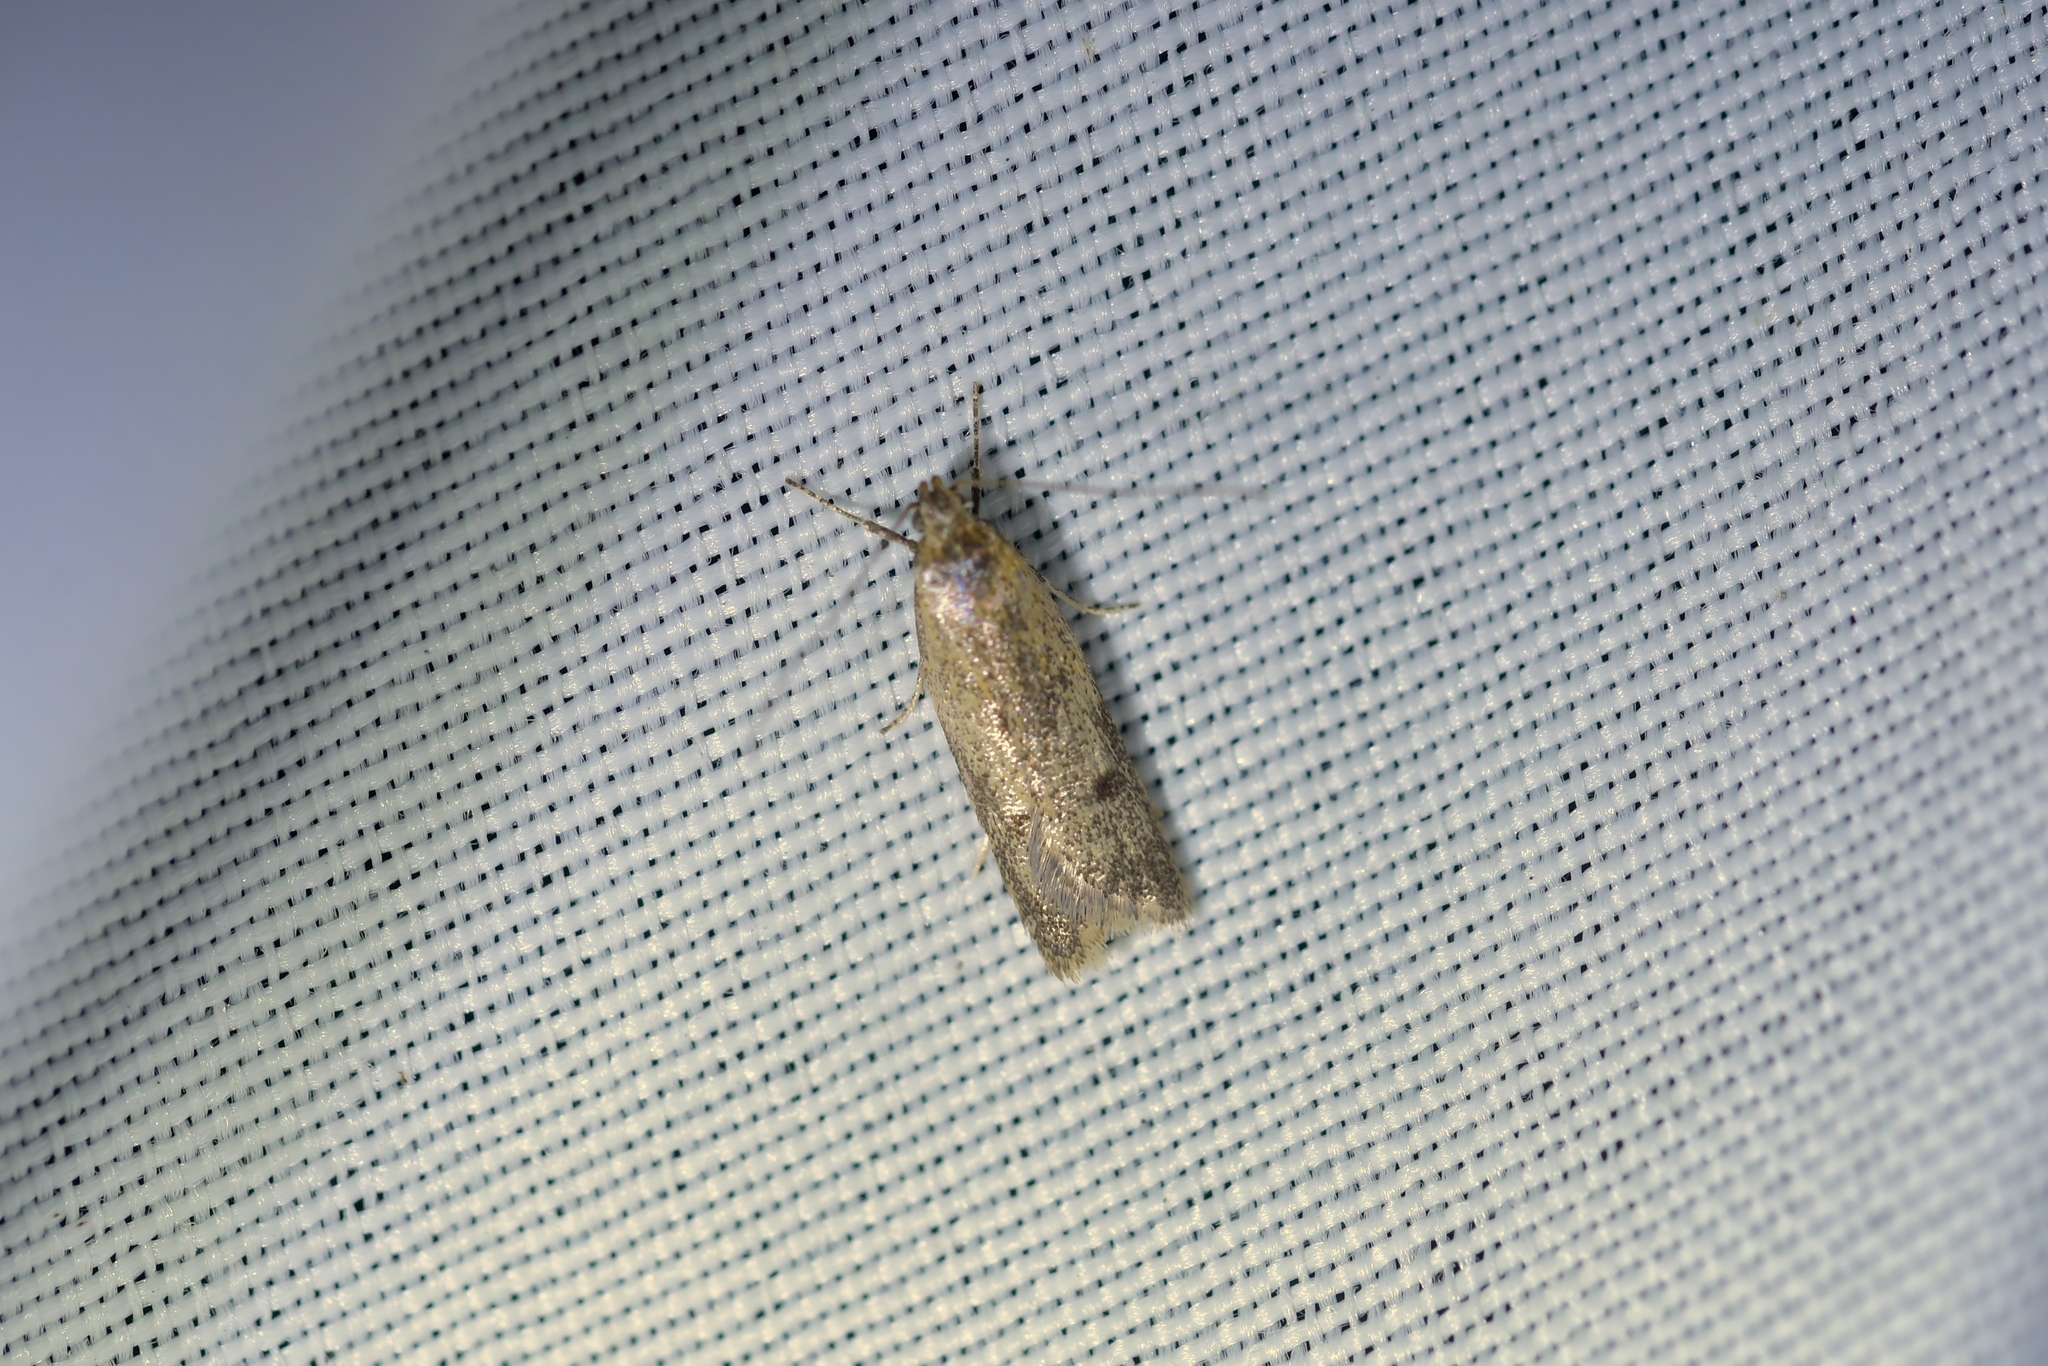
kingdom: Animalia
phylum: Arthropoda
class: Insecta
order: Lepidoptera
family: Oecophoridae
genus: Gymnobathra
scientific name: Gymnobathra tholodella
